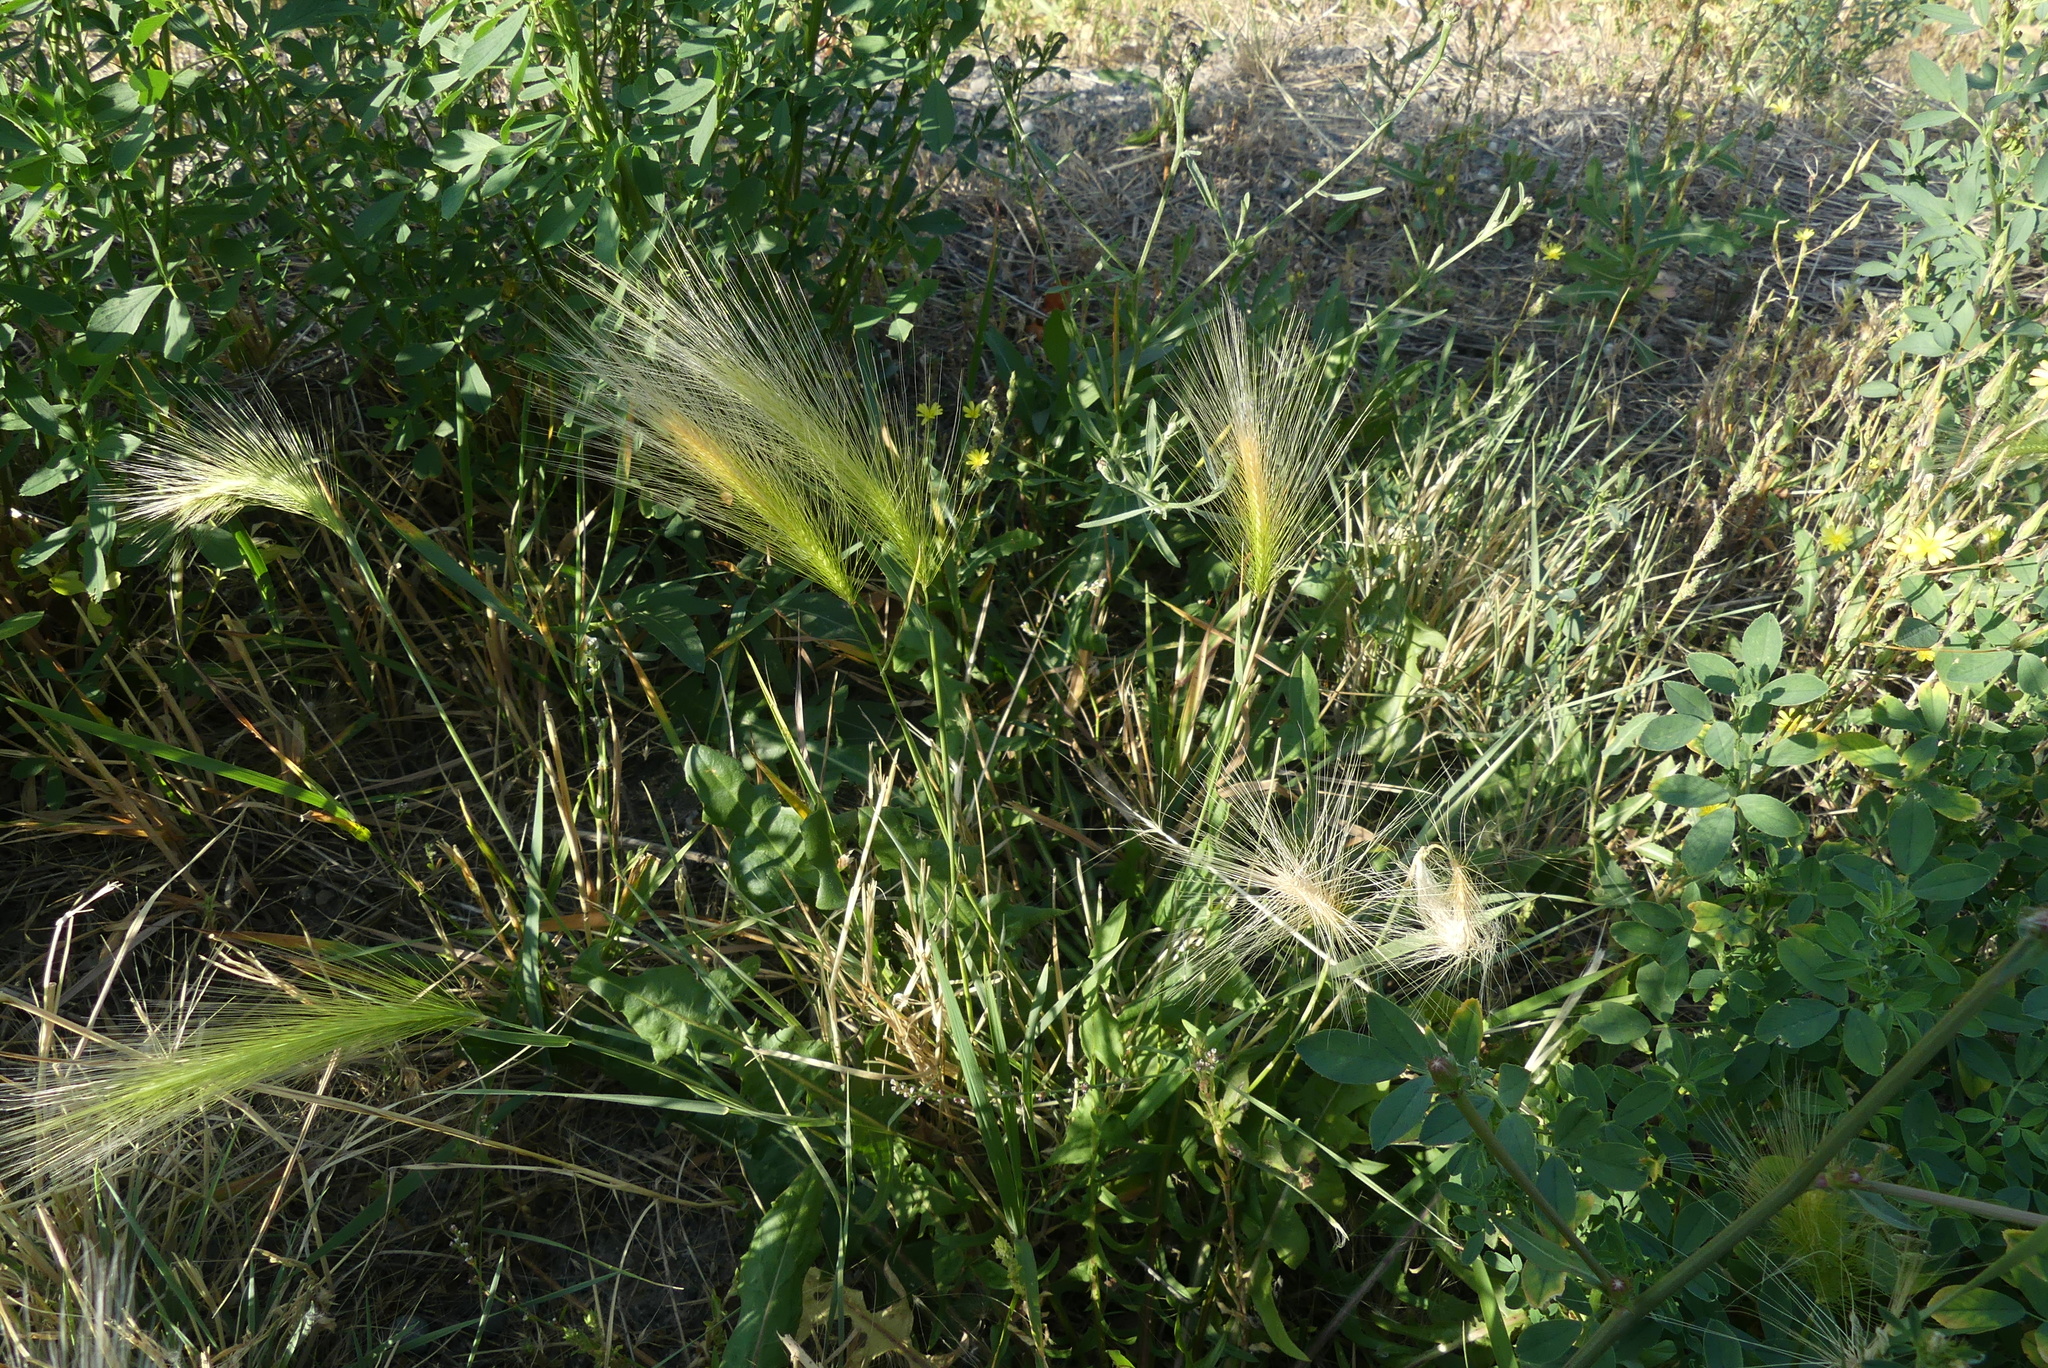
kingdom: Plantae
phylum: Tracheophyta
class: Liliopsida
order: Poales
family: Poaceae
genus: Hordeum
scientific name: Hordeum jubatum
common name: Foxtail barley
